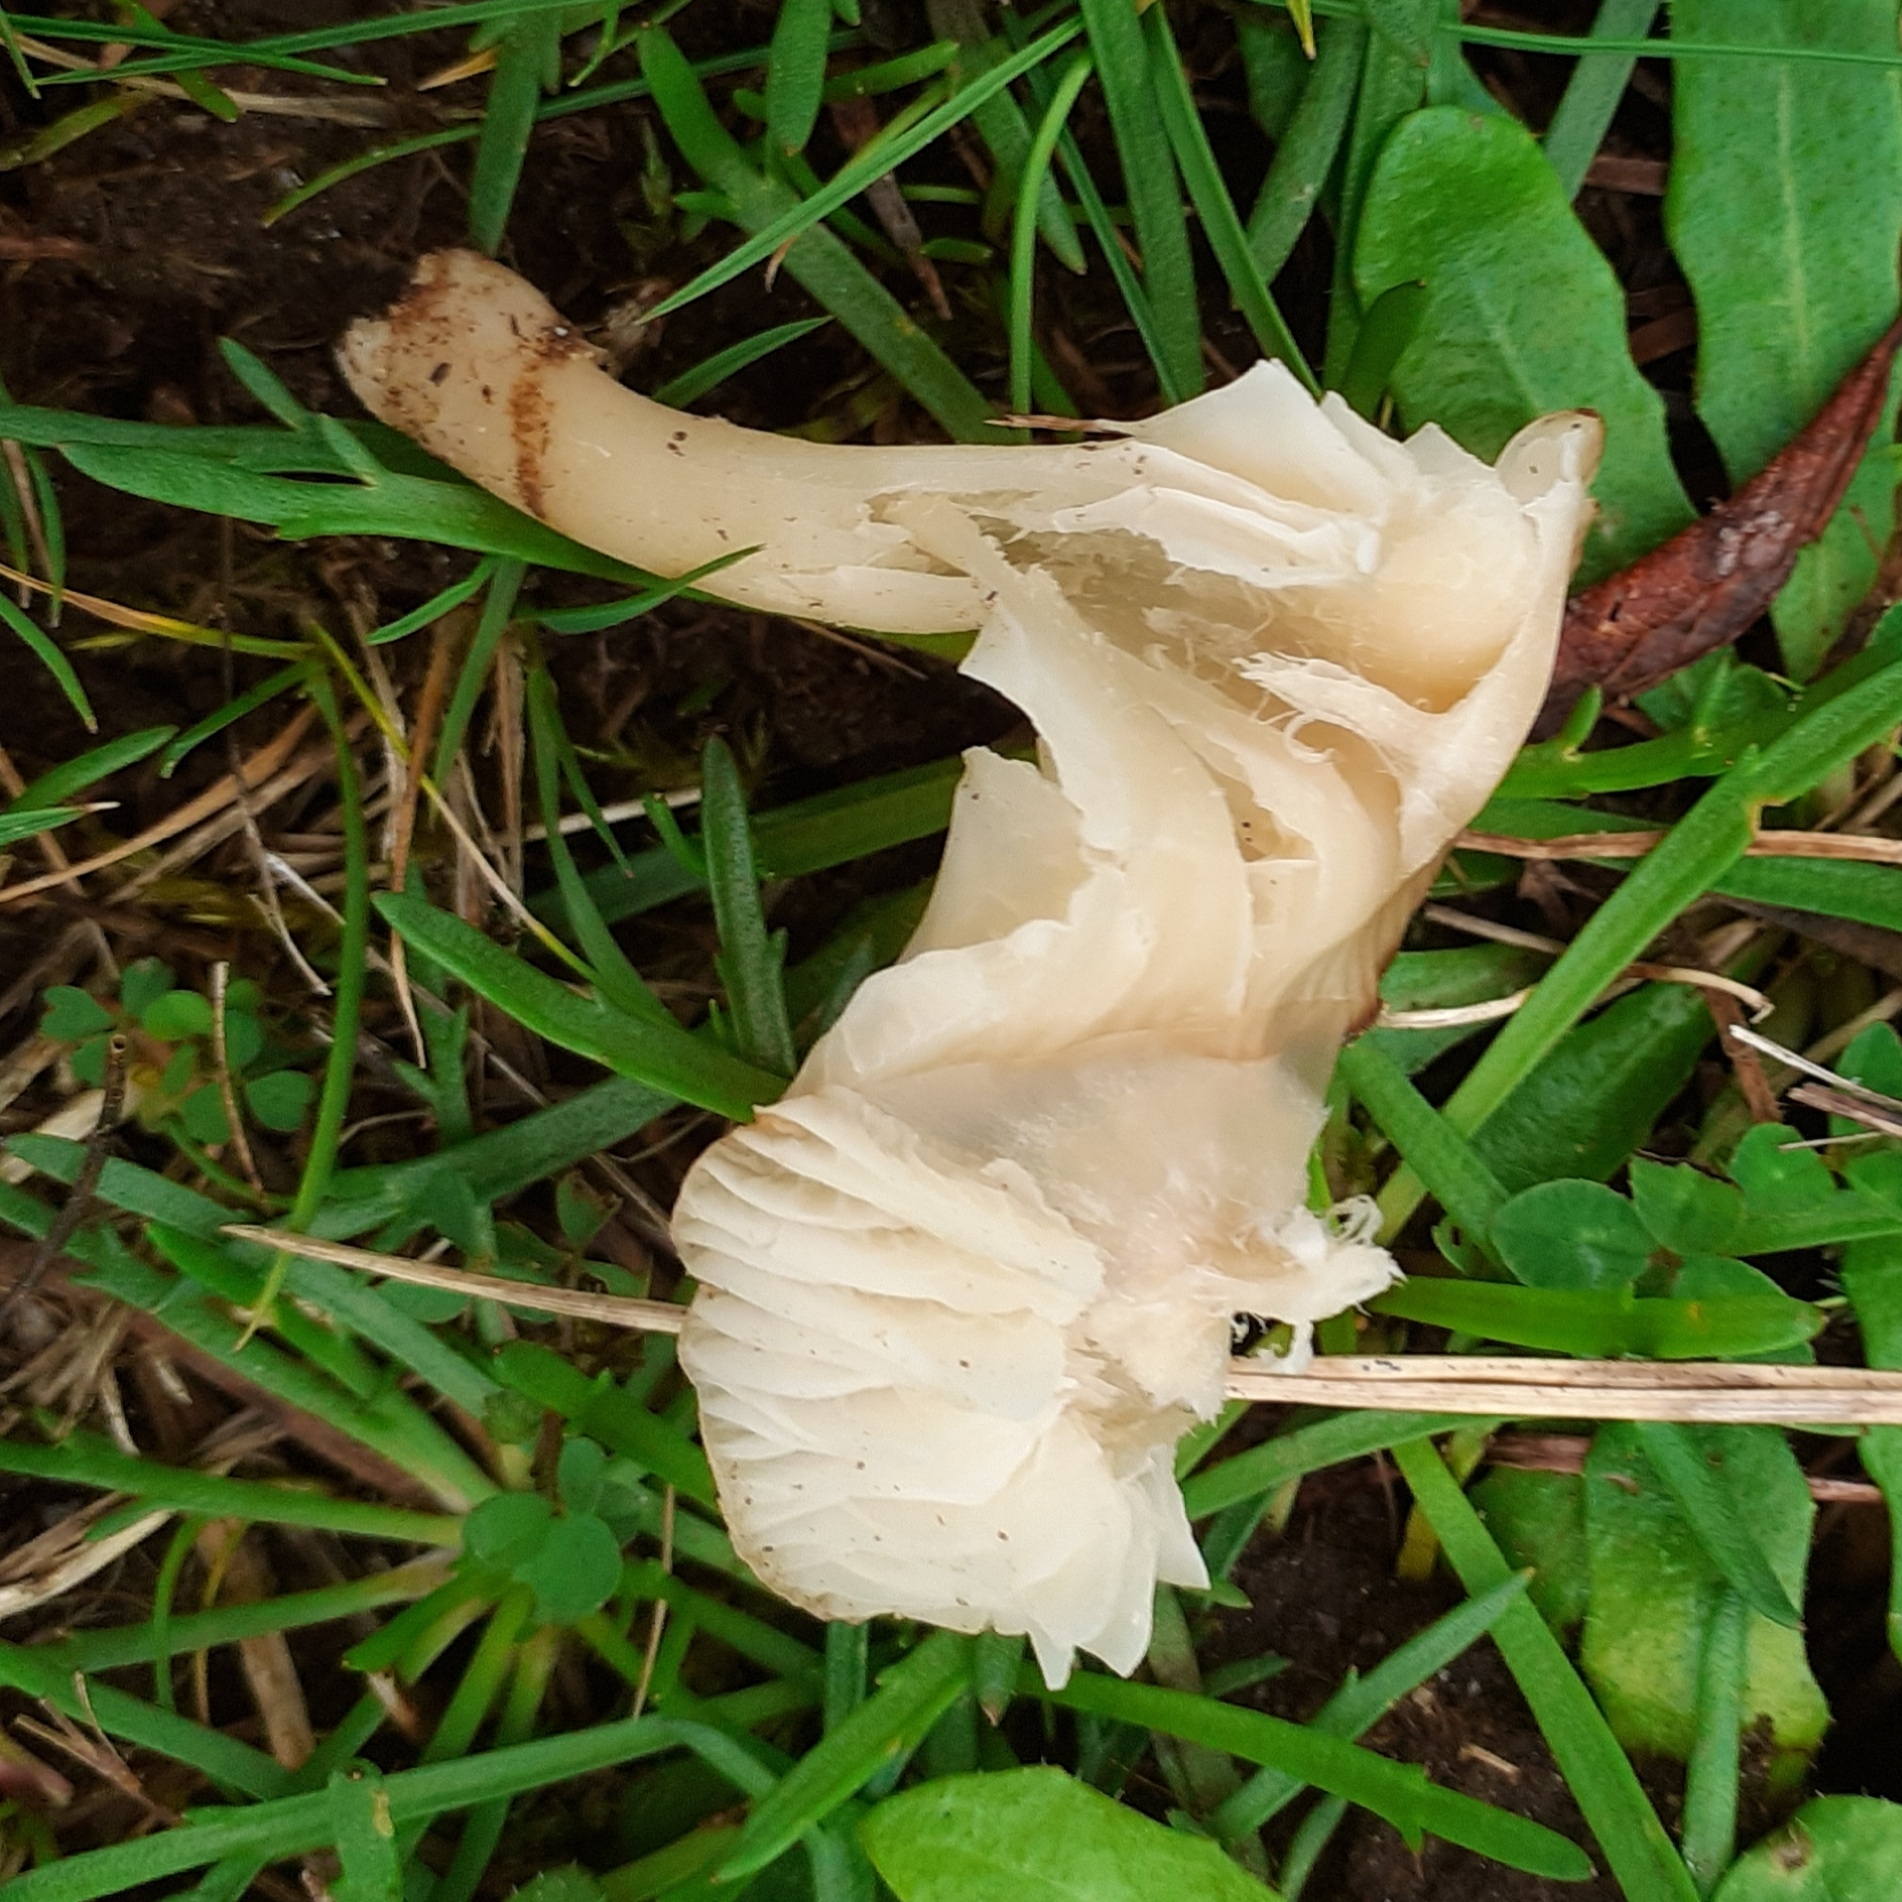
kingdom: Fungi
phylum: Basidiomycota
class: Agaricomycetes
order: Agaricales
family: Hygrophoraceae
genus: Cuphophyllus
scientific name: Cuphophyllus virgineus
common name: Snowy waxcap
